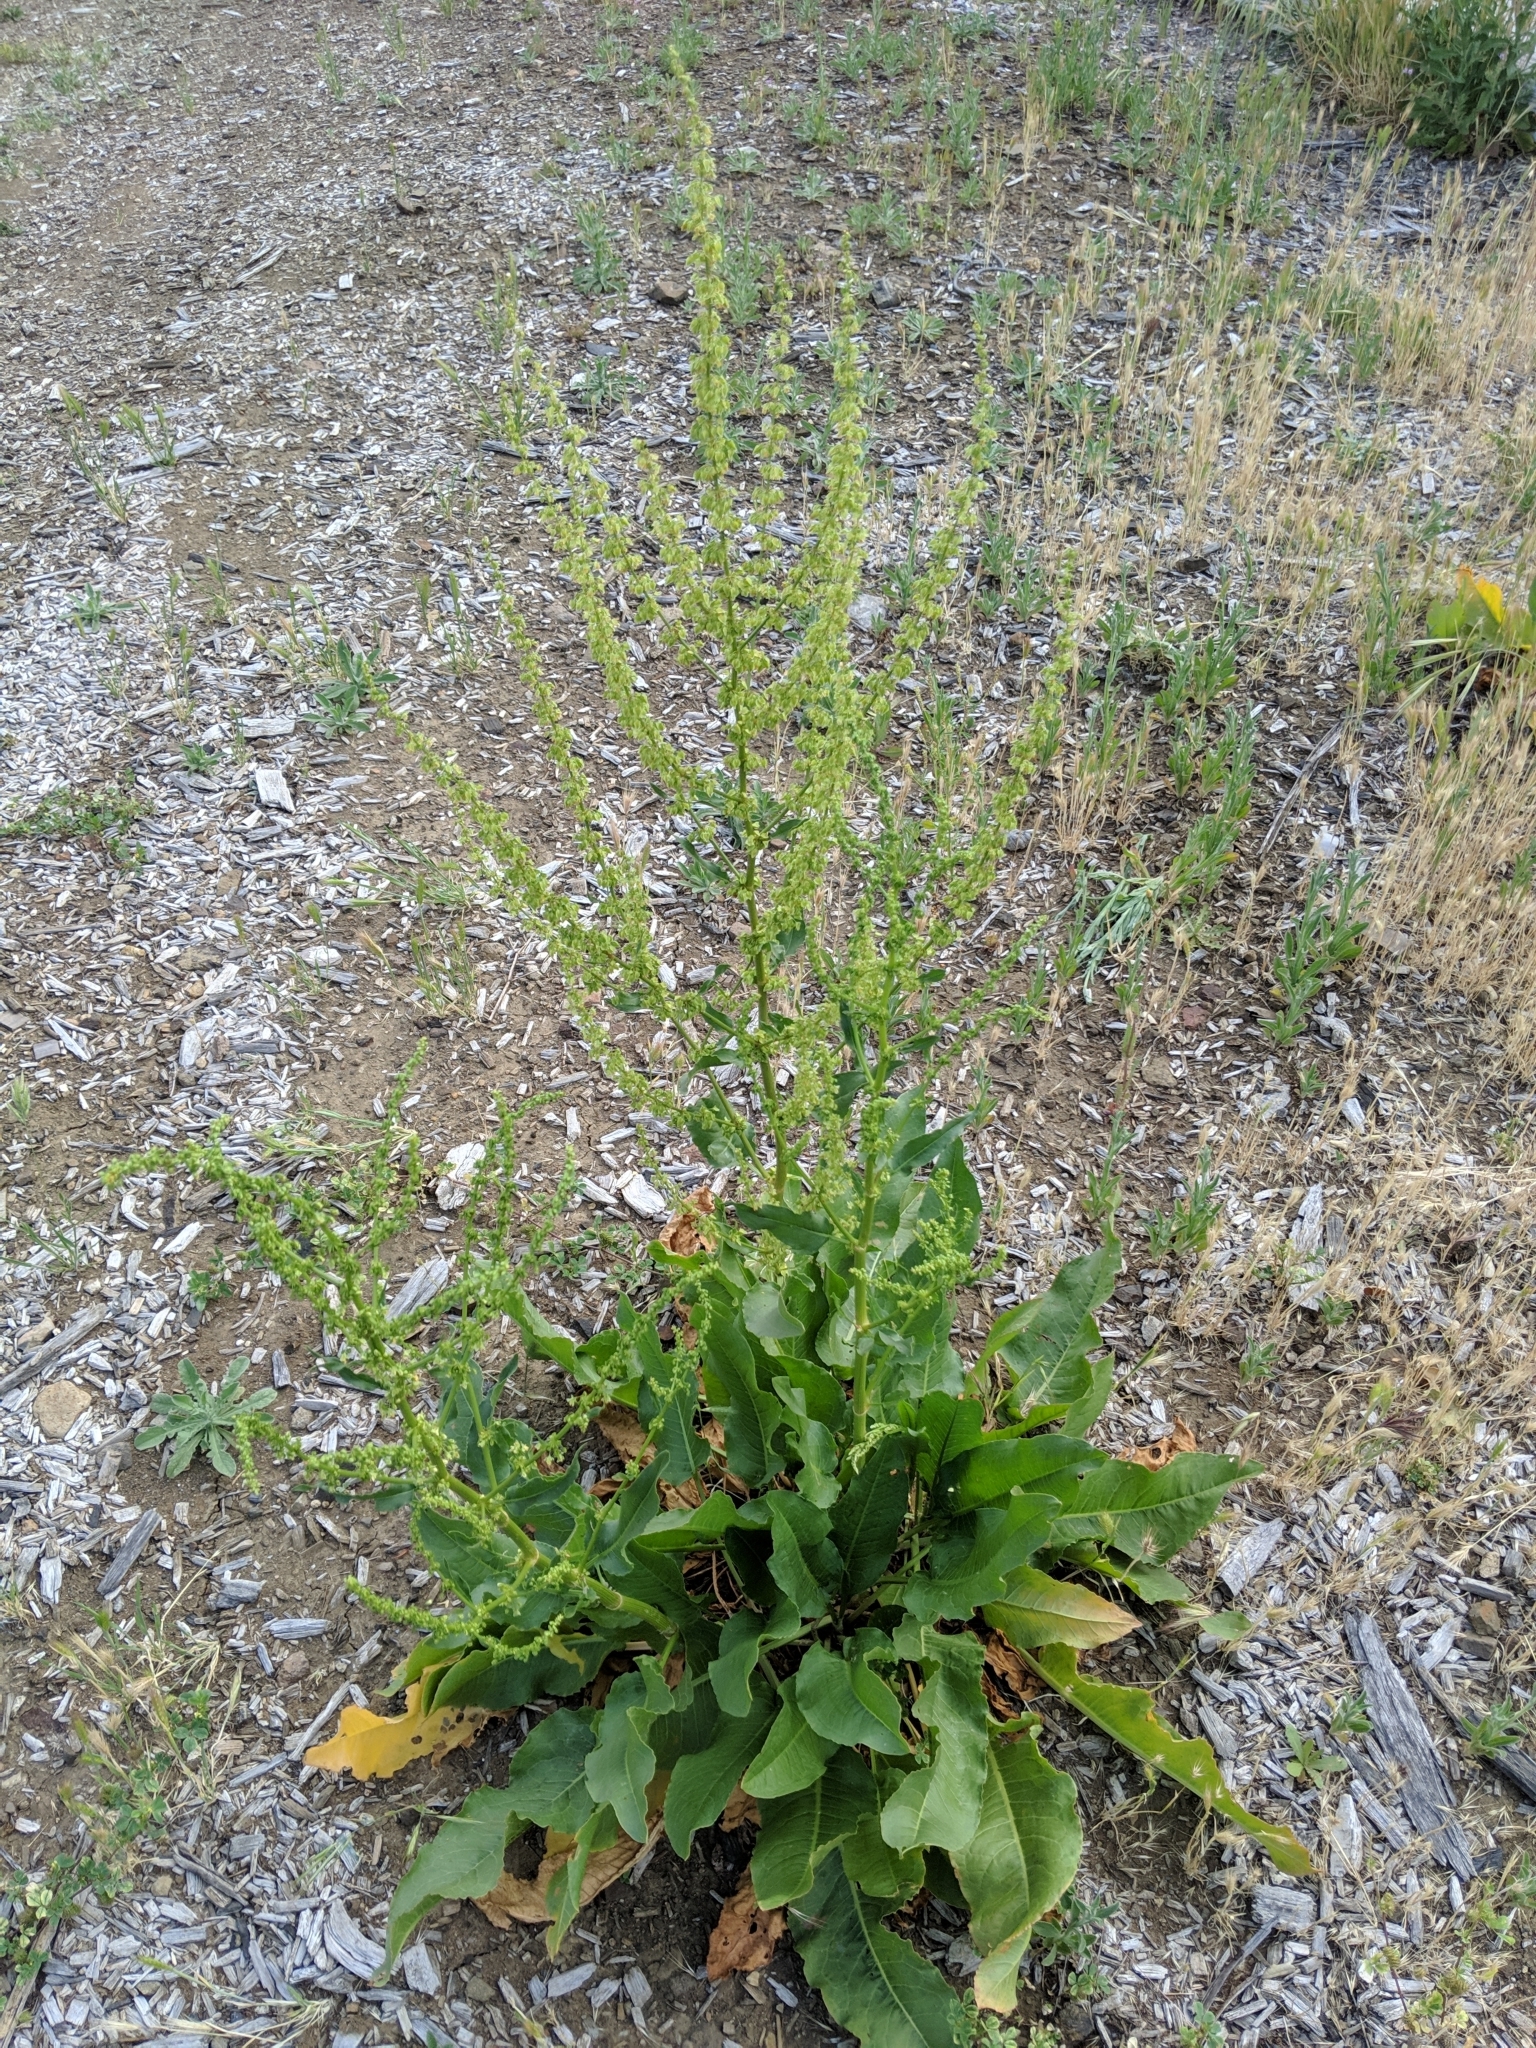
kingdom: Plantae
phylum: Tracheophyta
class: Magnoliopsida
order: Caryophyllales
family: Polygonaceae
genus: Rumex
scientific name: Rumex crispus
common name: Curled dock
